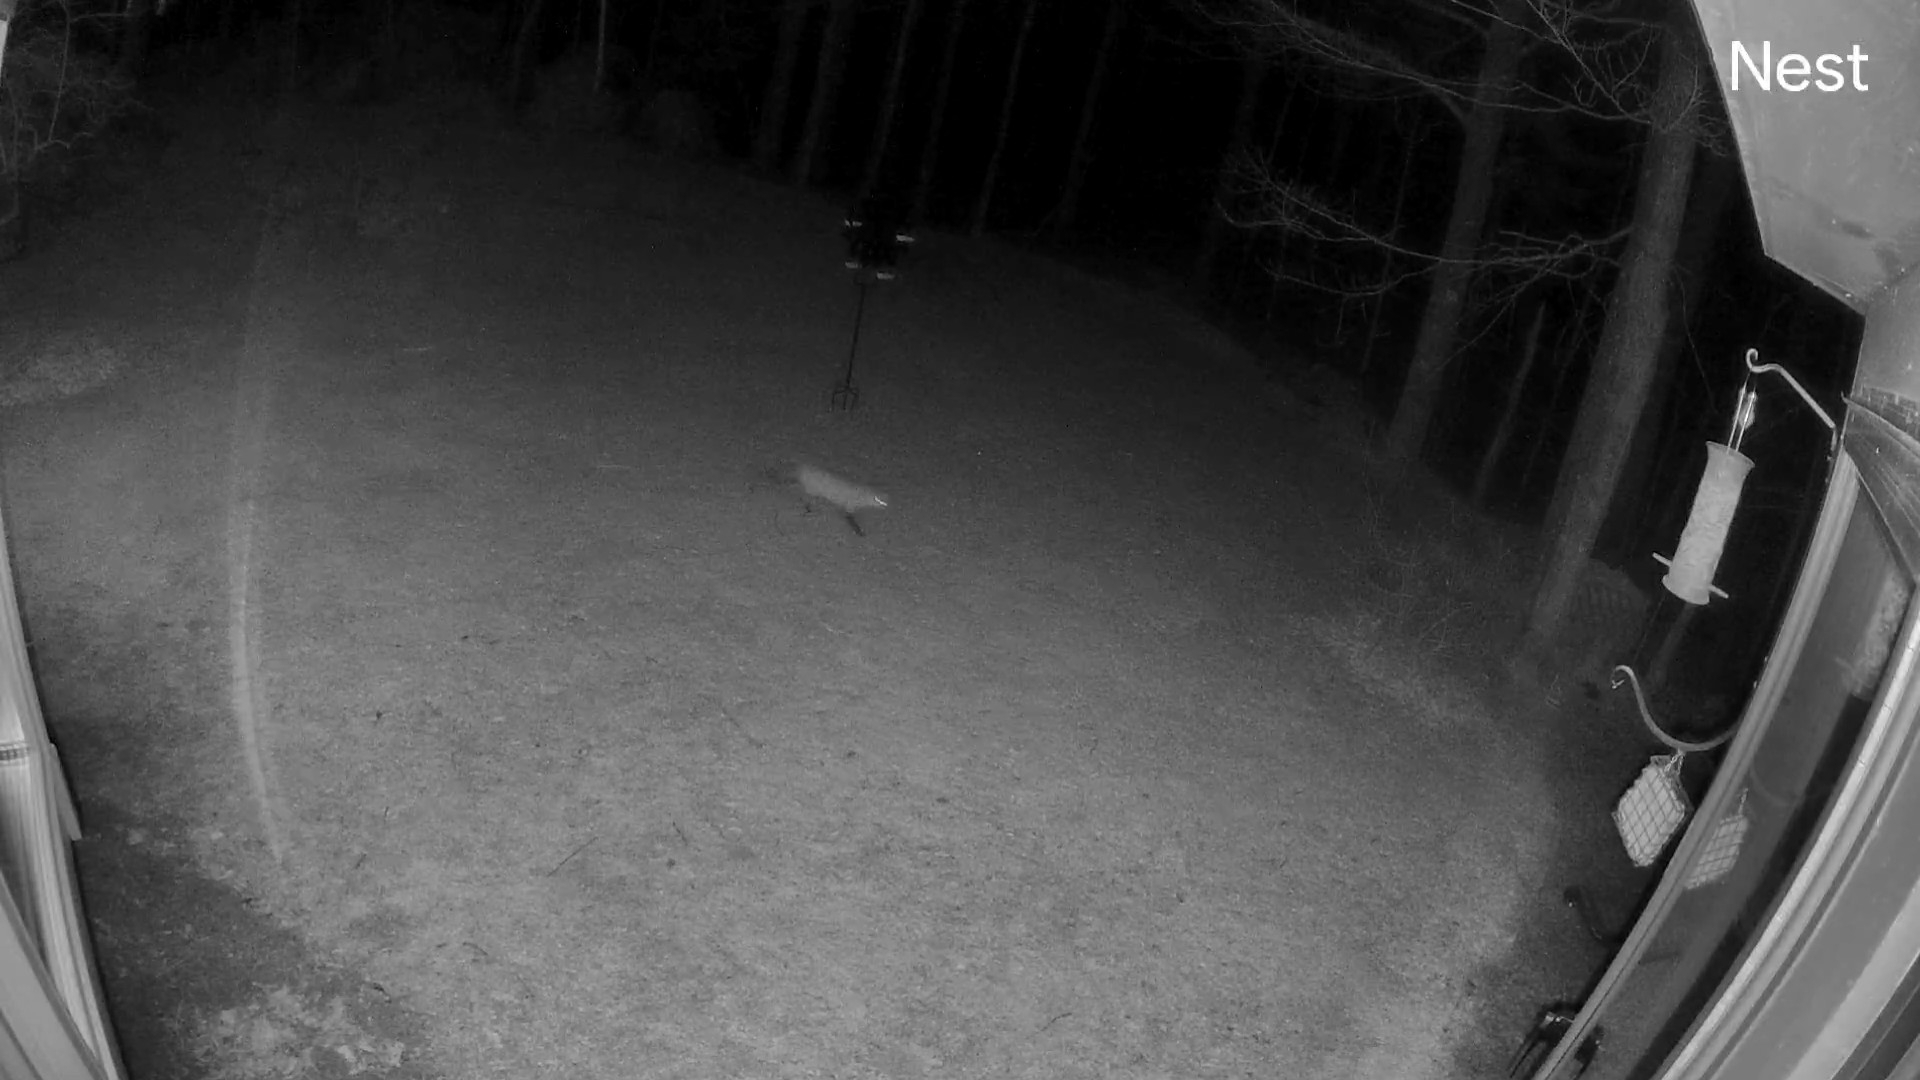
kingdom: Animalia
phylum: Chordata
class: Mammalia
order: Carnivora
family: Canidae
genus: Vulpes
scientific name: Vulpes vulpes
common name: Red fox
